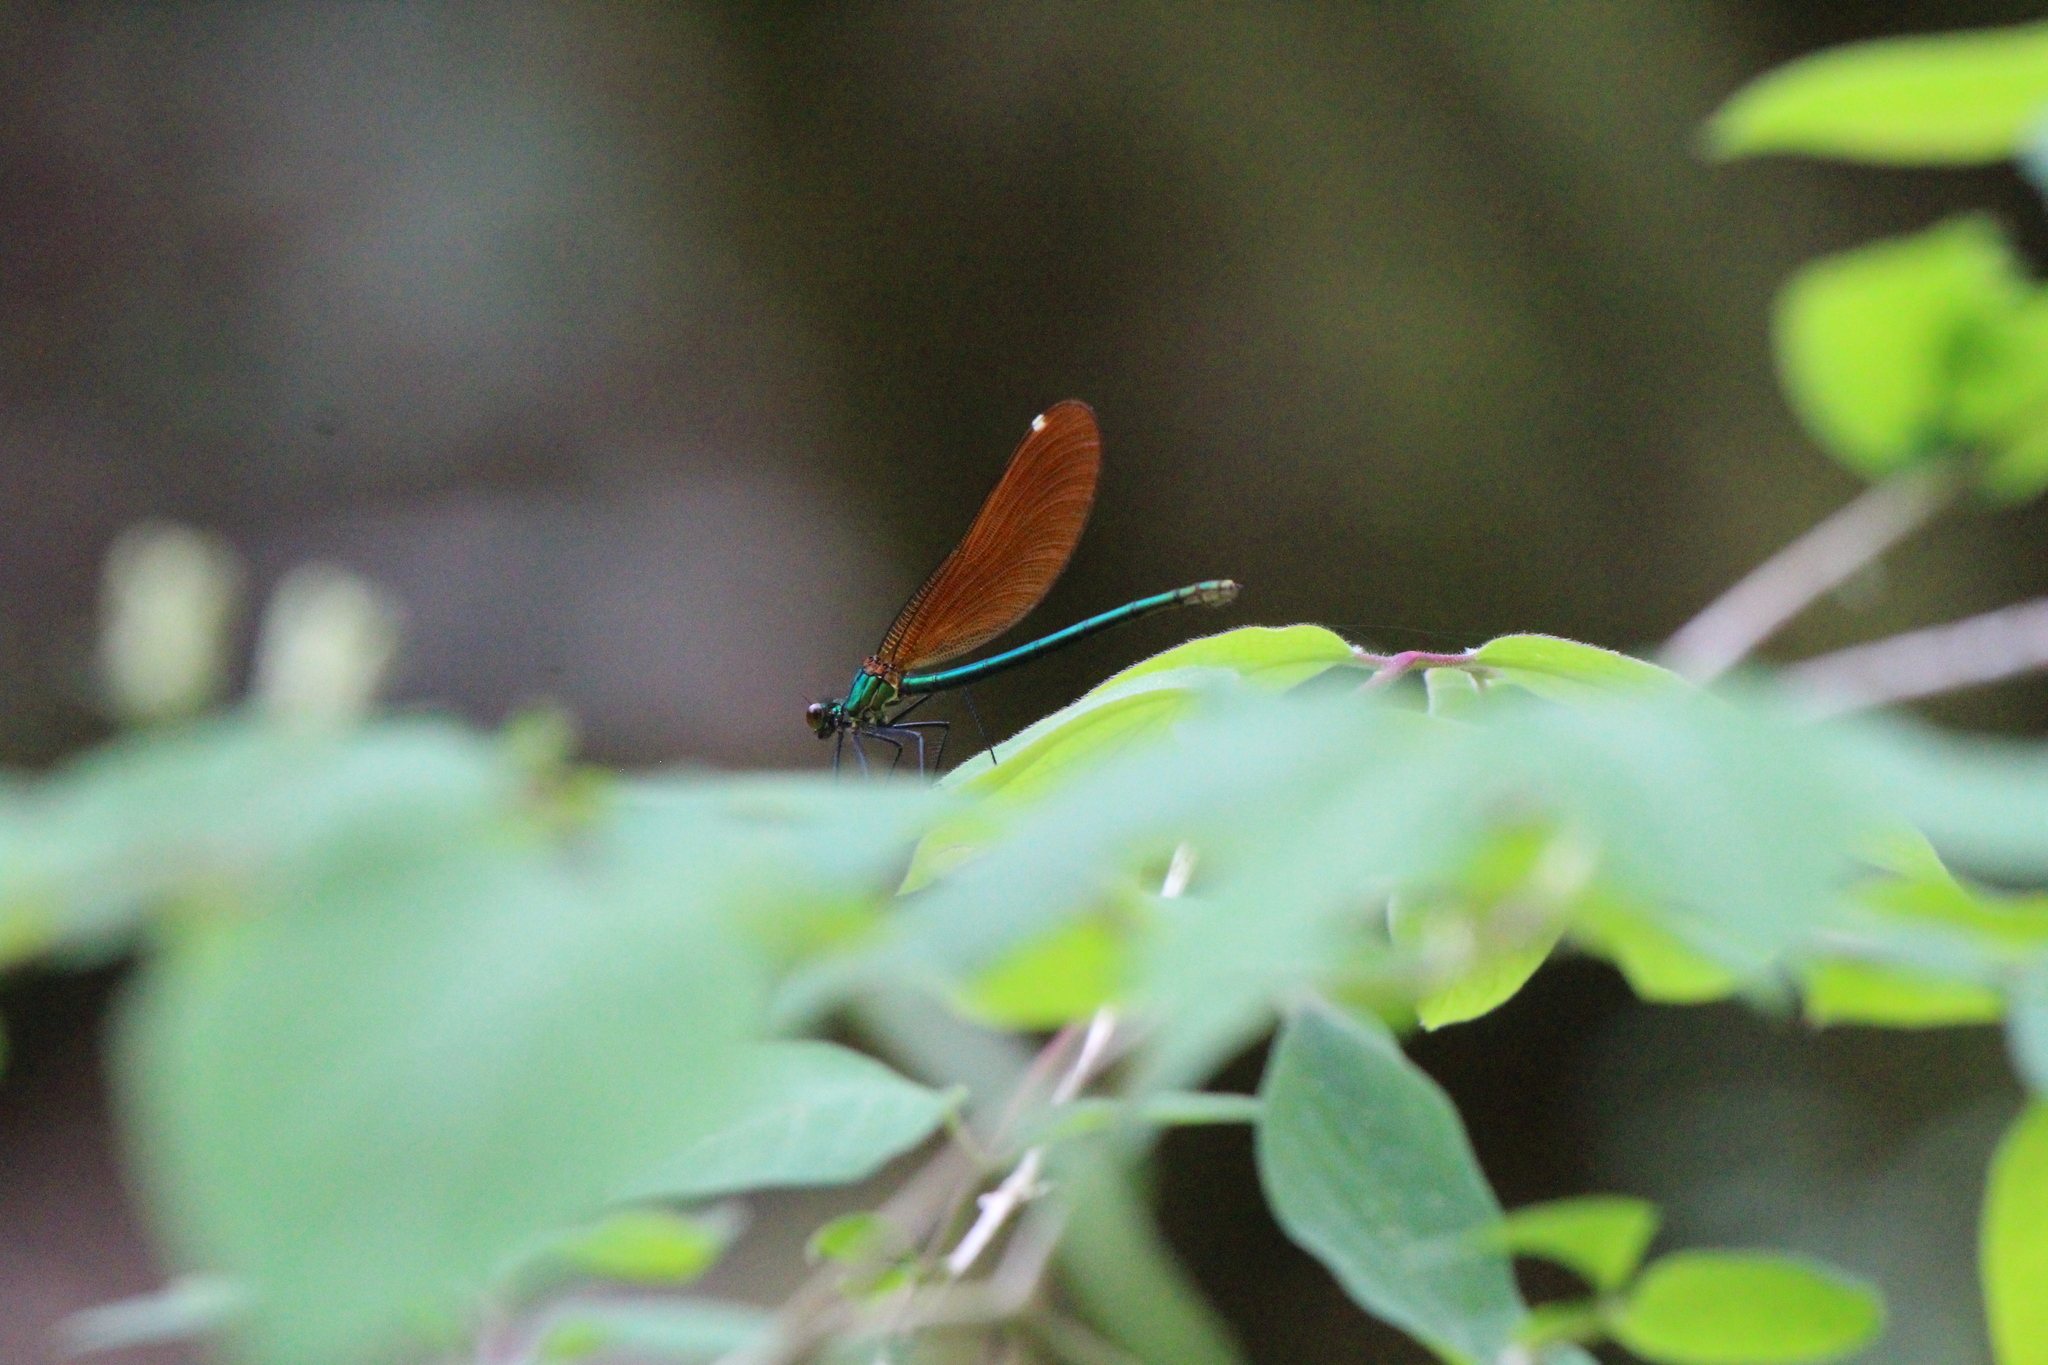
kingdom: Animalia
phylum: Arthropoda
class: Insecta
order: Odonata
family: Calopterygidae
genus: Calopteryx
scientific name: Calopteryx virgo
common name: Beautiful demoiselle
